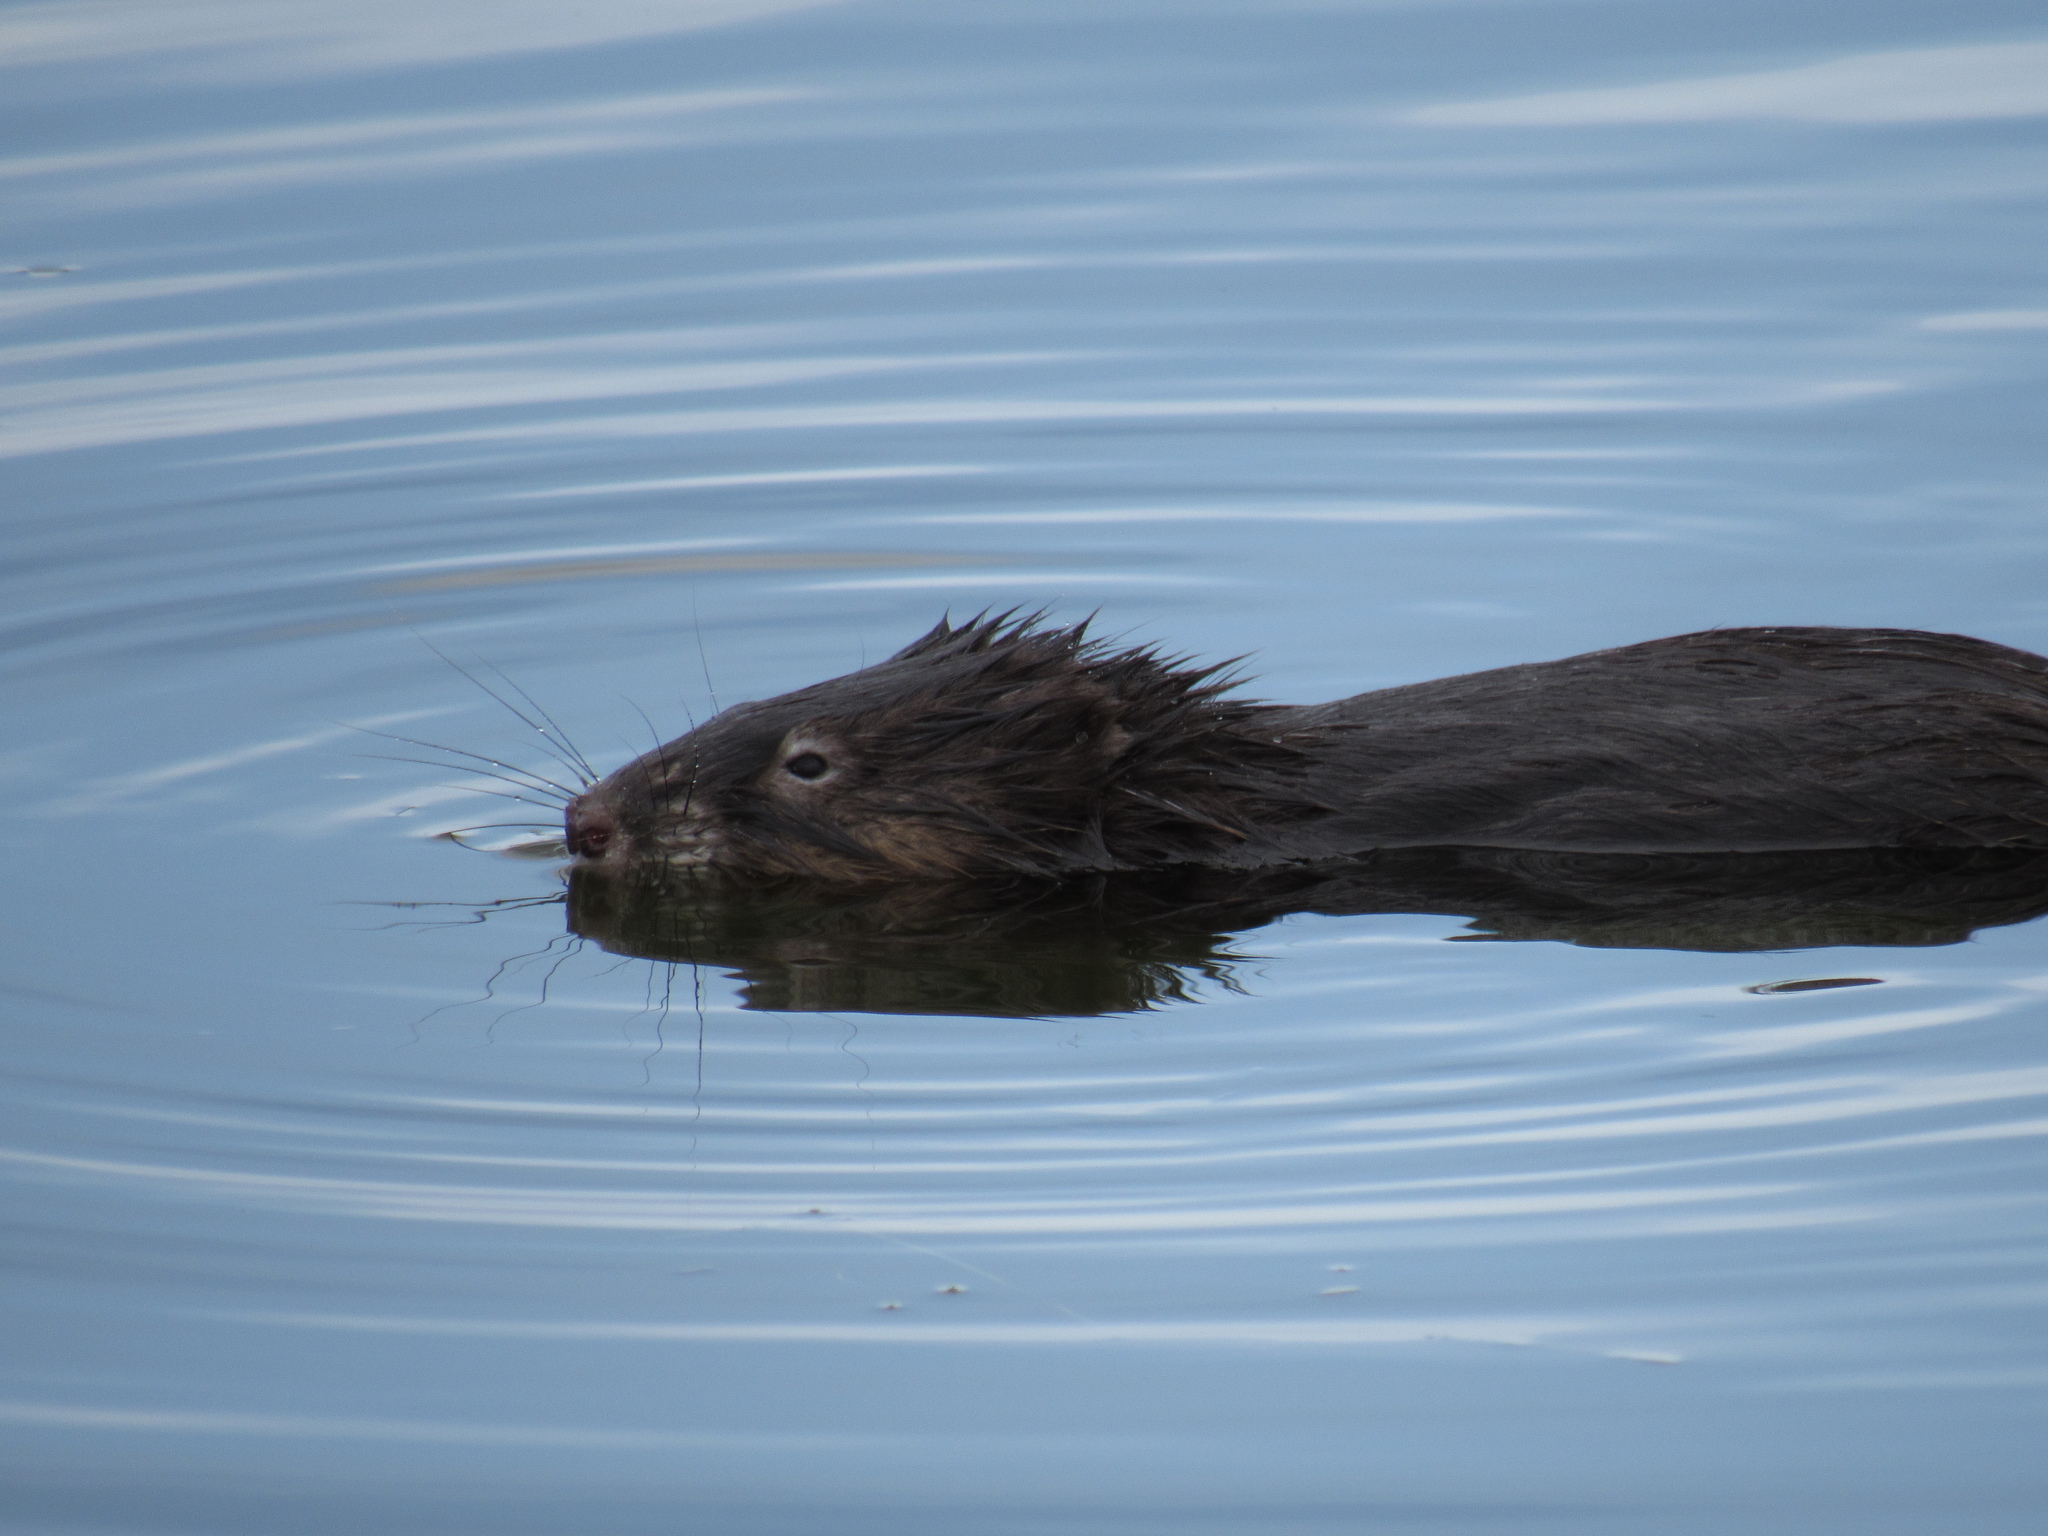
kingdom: Animalia
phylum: Chordata
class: Mammalia
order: Rodentia
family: Cricetidae
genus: Ondatra
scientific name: Ondatra zibethicus
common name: Muskrat
